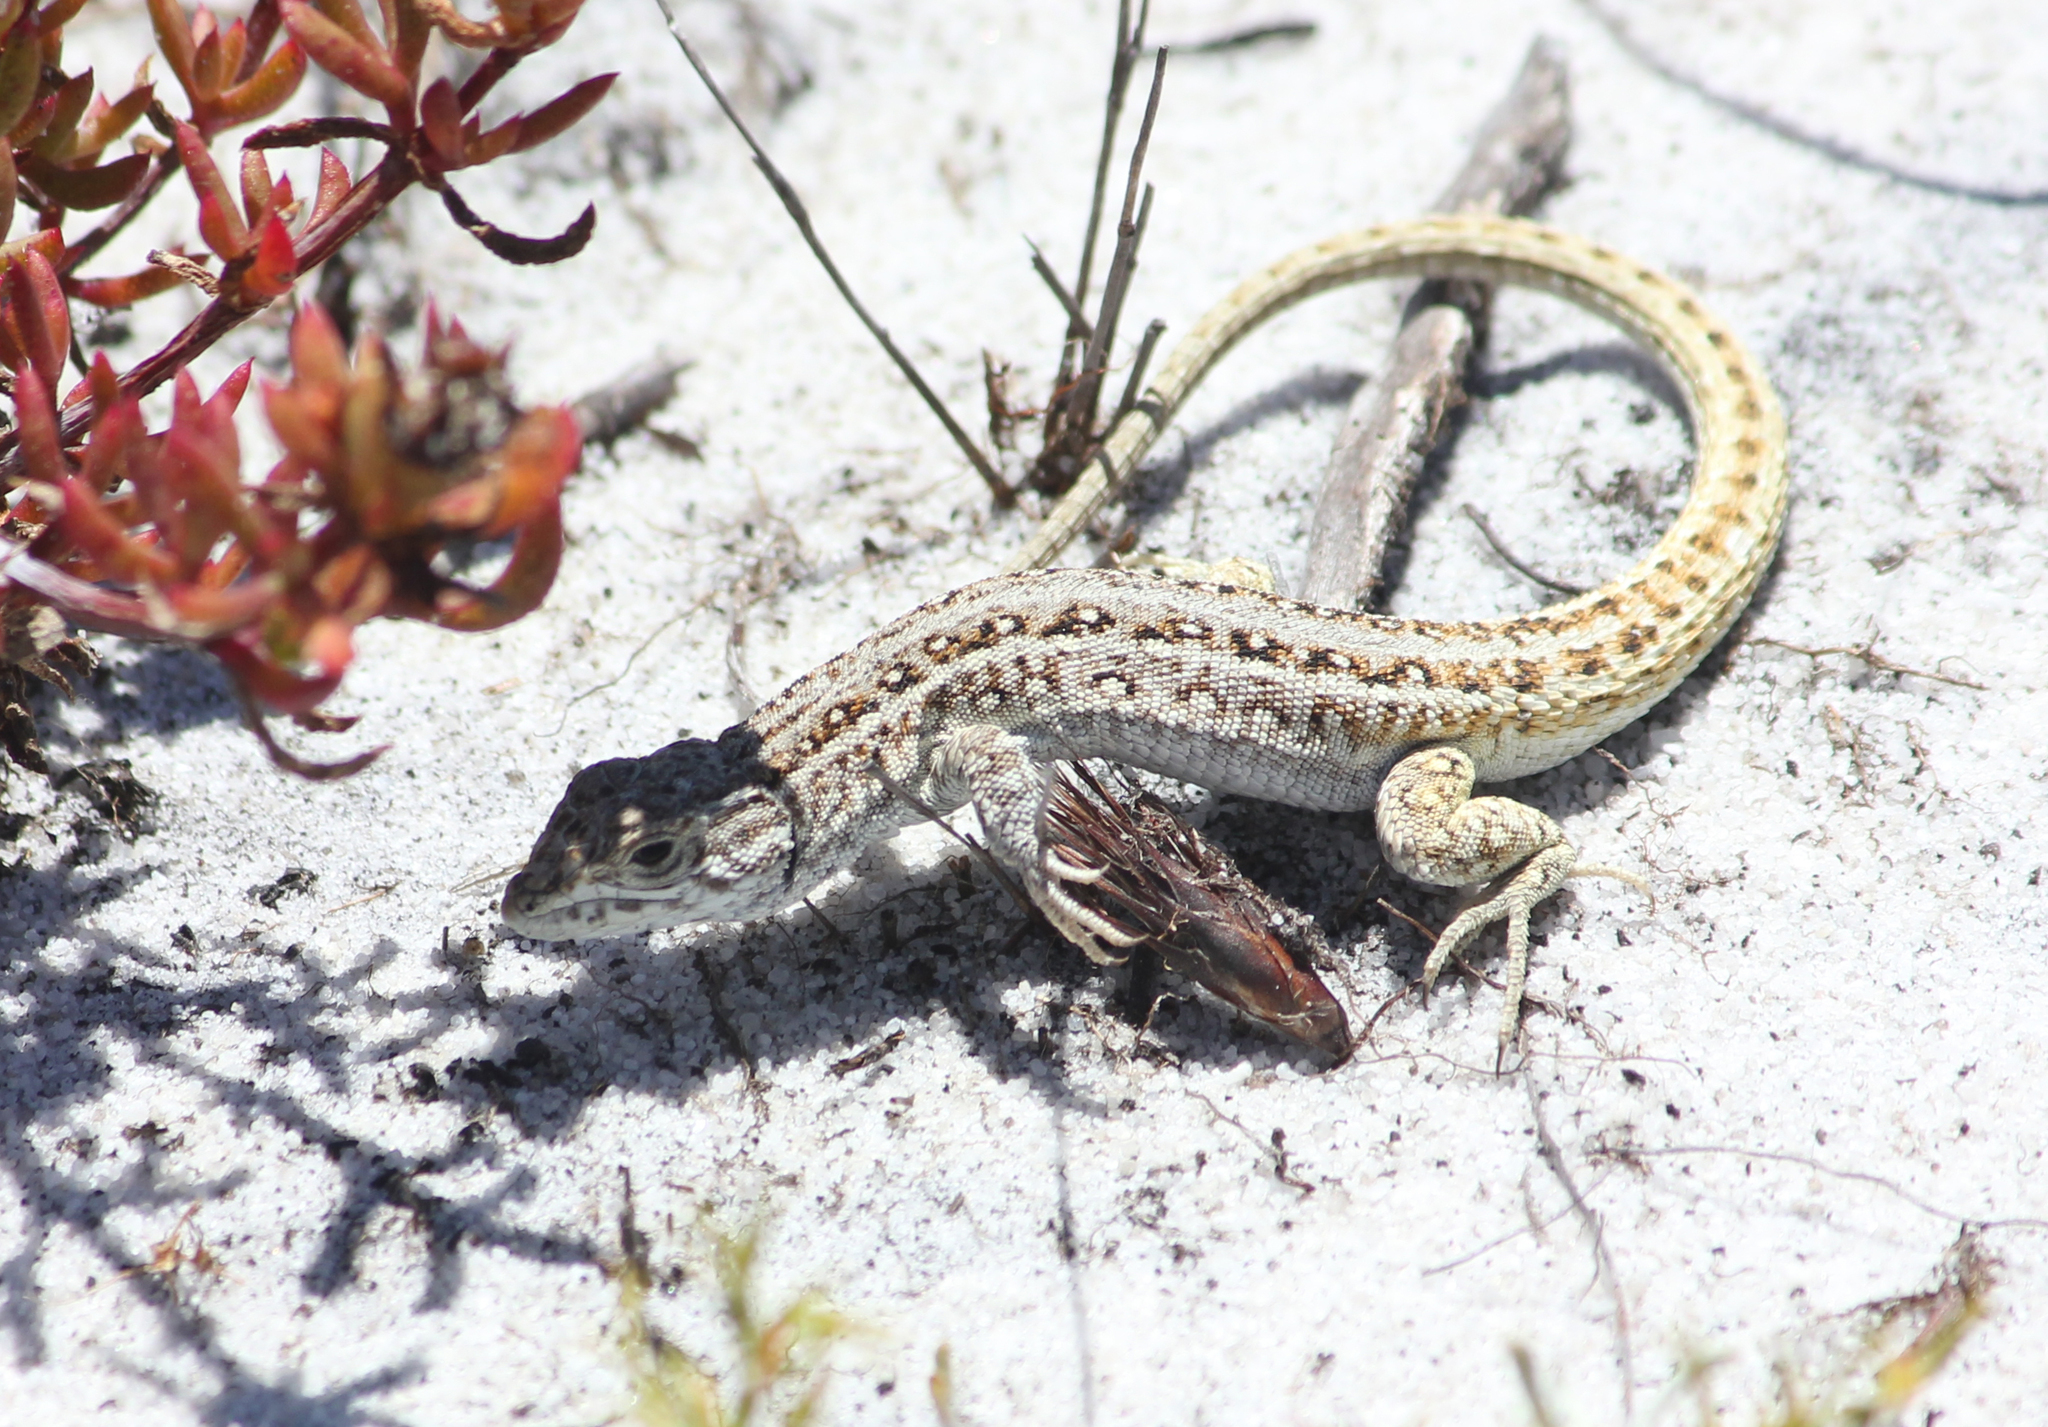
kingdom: Animalia
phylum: Chordata
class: Squamata
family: Lacertidae
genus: Meroles
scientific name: Meroles knoxii
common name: Knox's desert lizard
